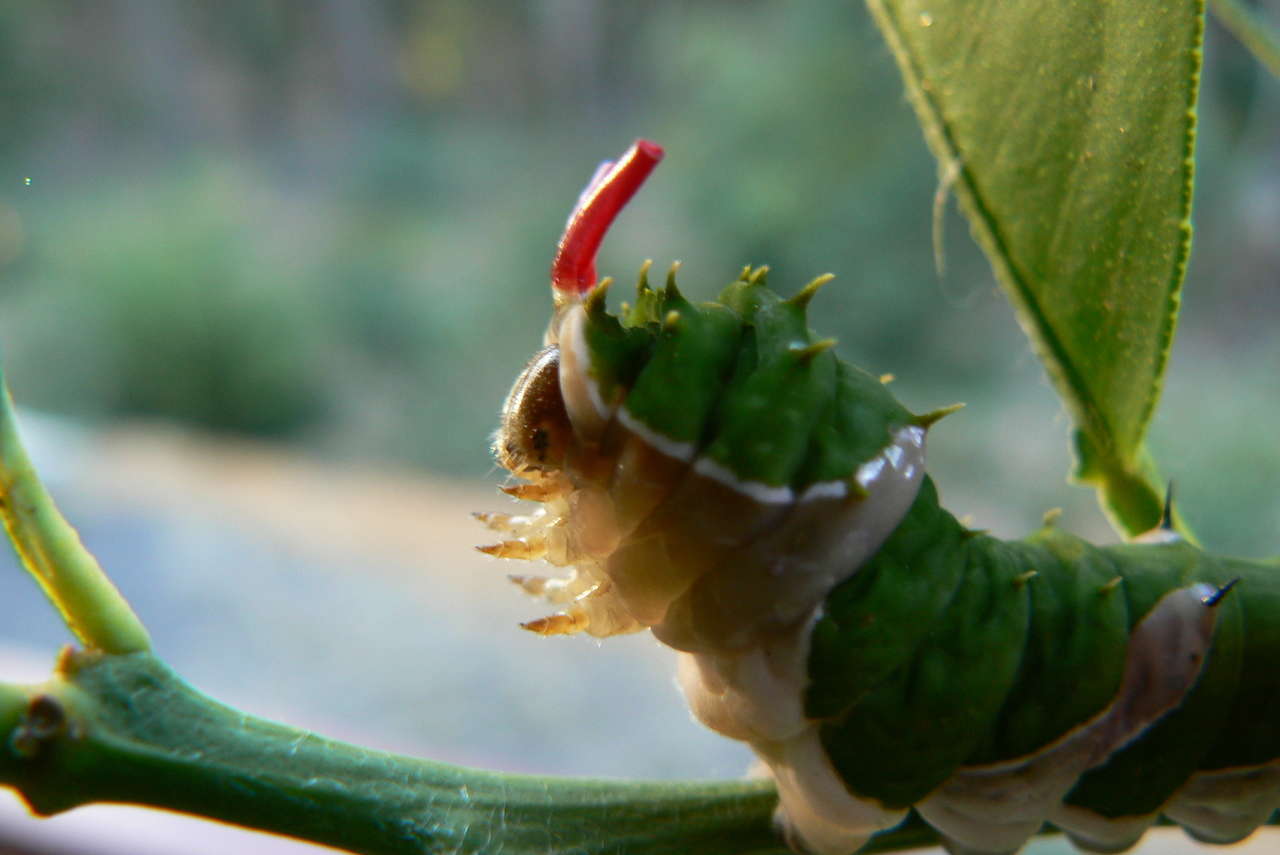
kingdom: Animalia
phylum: Arthropoda
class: Insecta
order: Lepidoptera
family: Papilionidae
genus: Papilio
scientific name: Papilio aegeus
